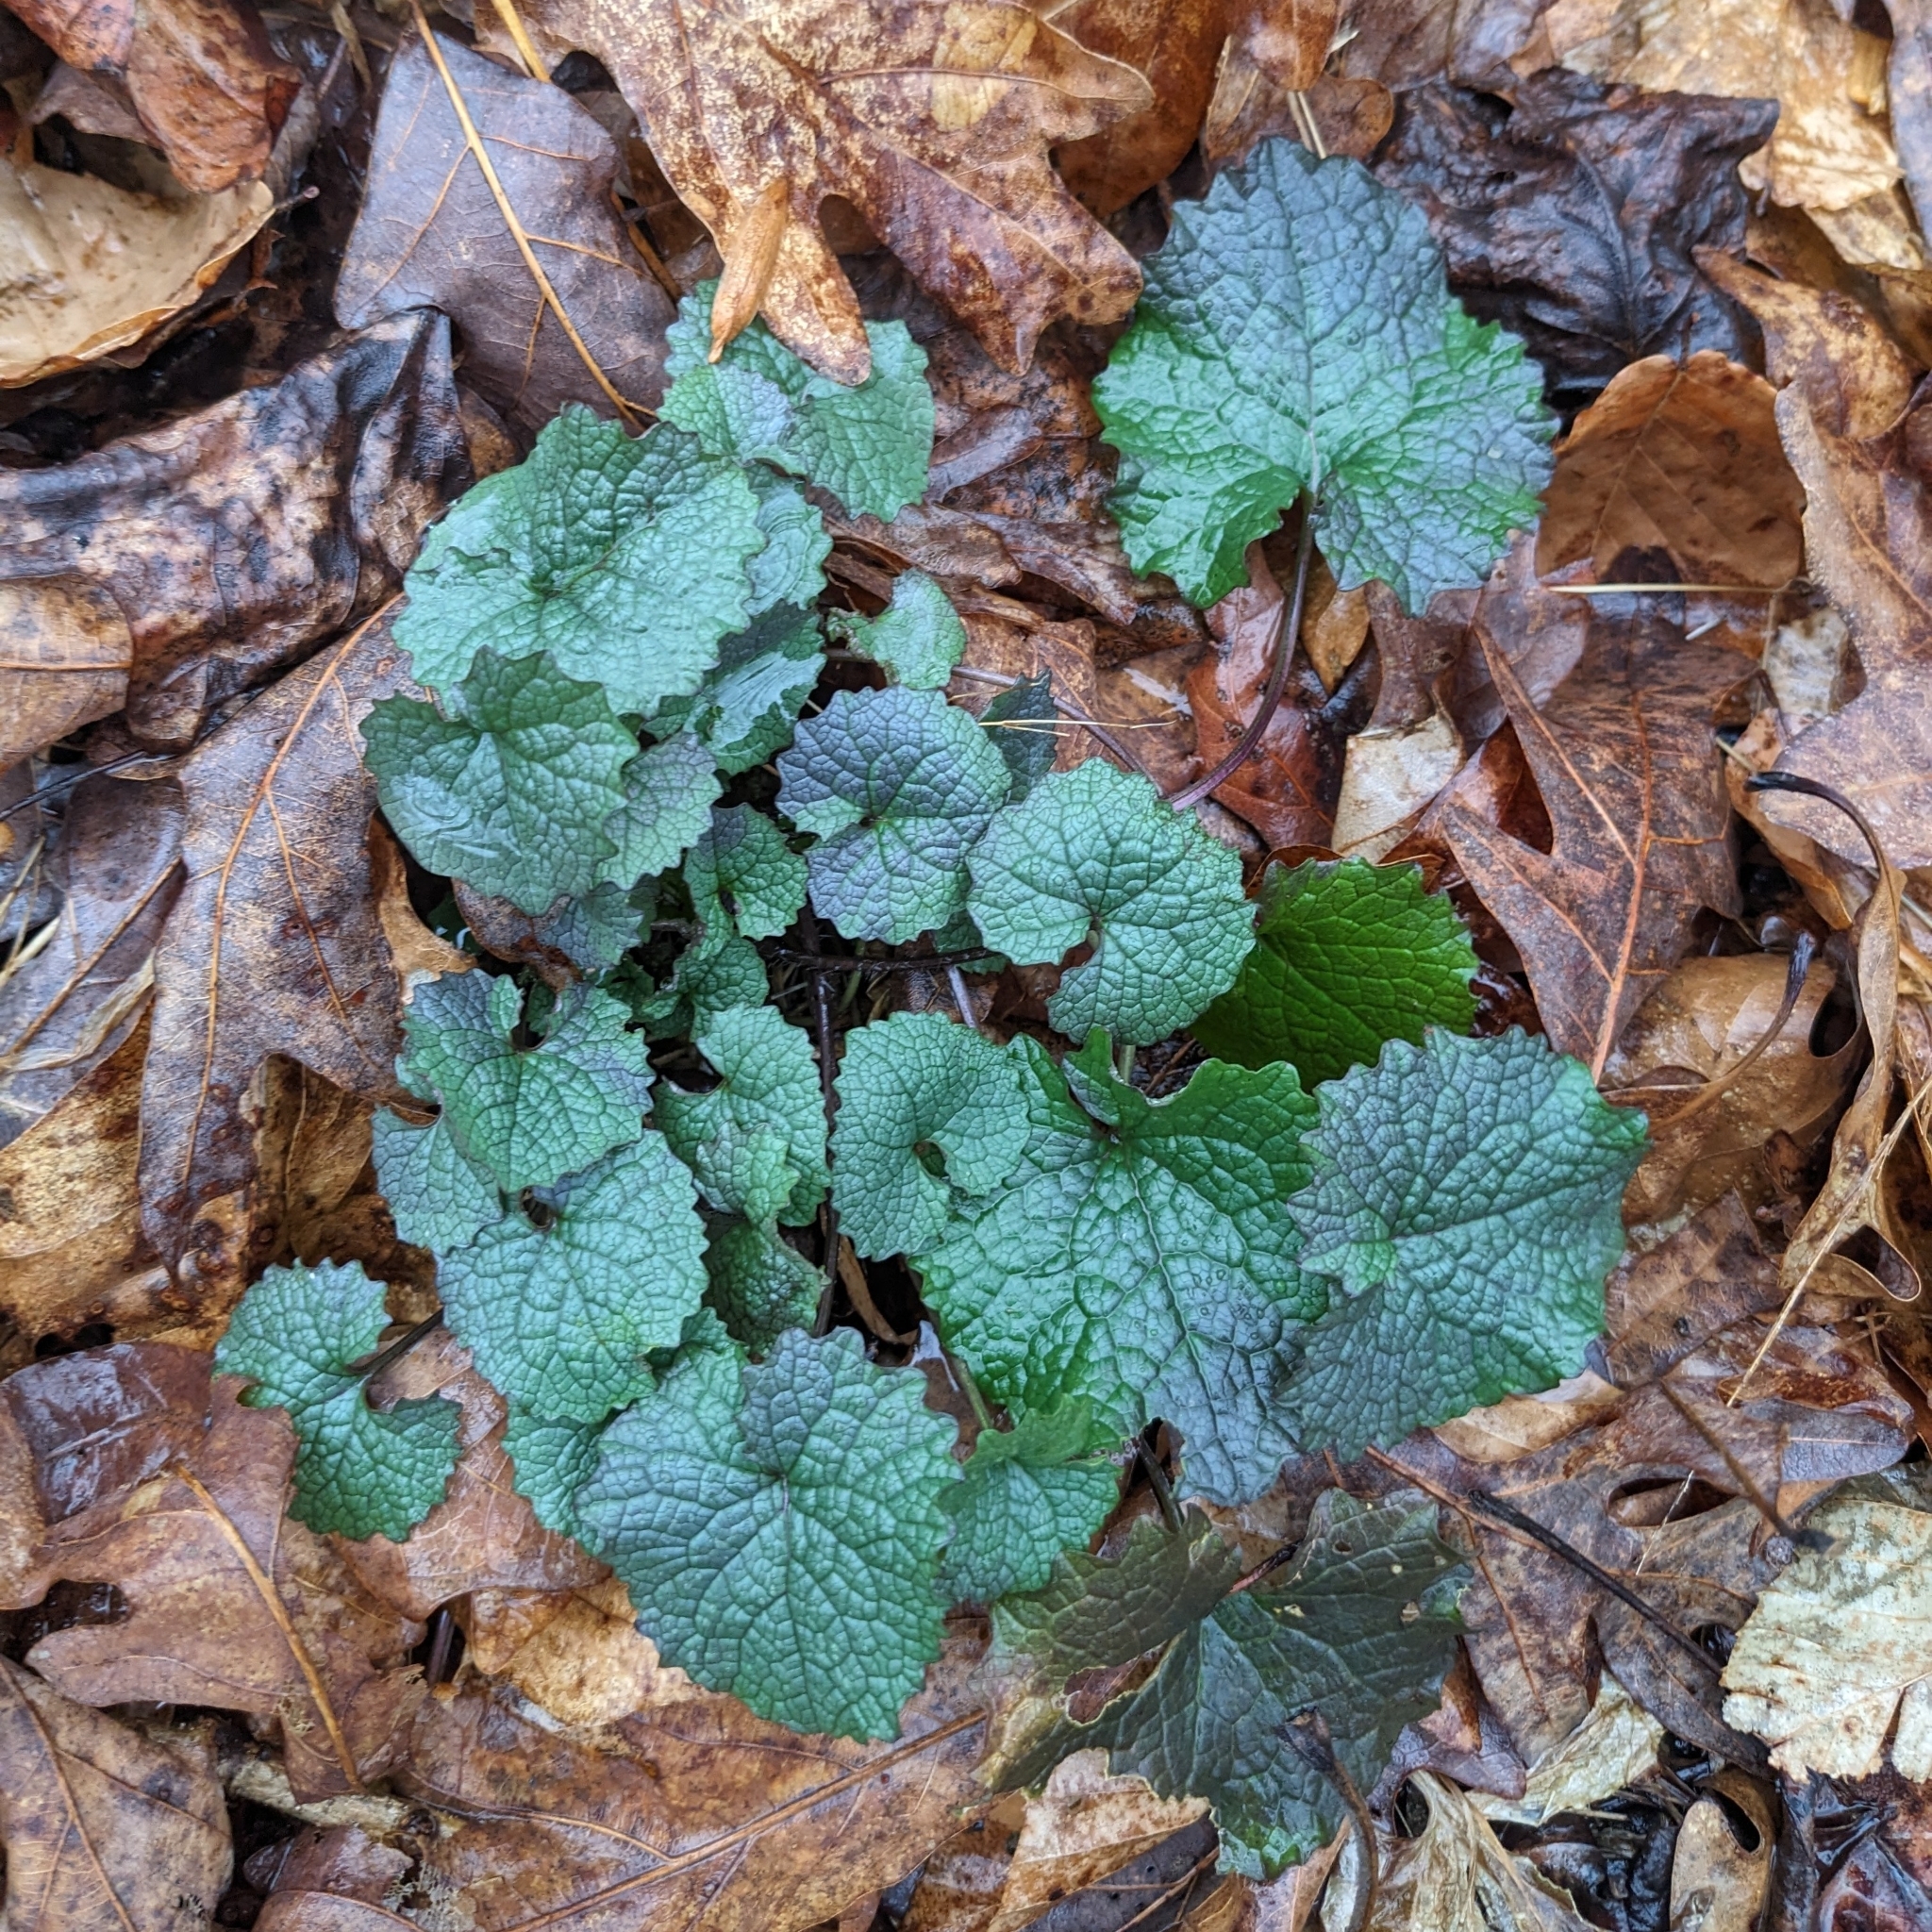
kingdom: Plantae
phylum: Tracheophyta
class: Magnoliopsida
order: Brassicales
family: Brassicaceae
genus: Alliaria
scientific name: Alliaria petiolata
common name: Garlic mustard
